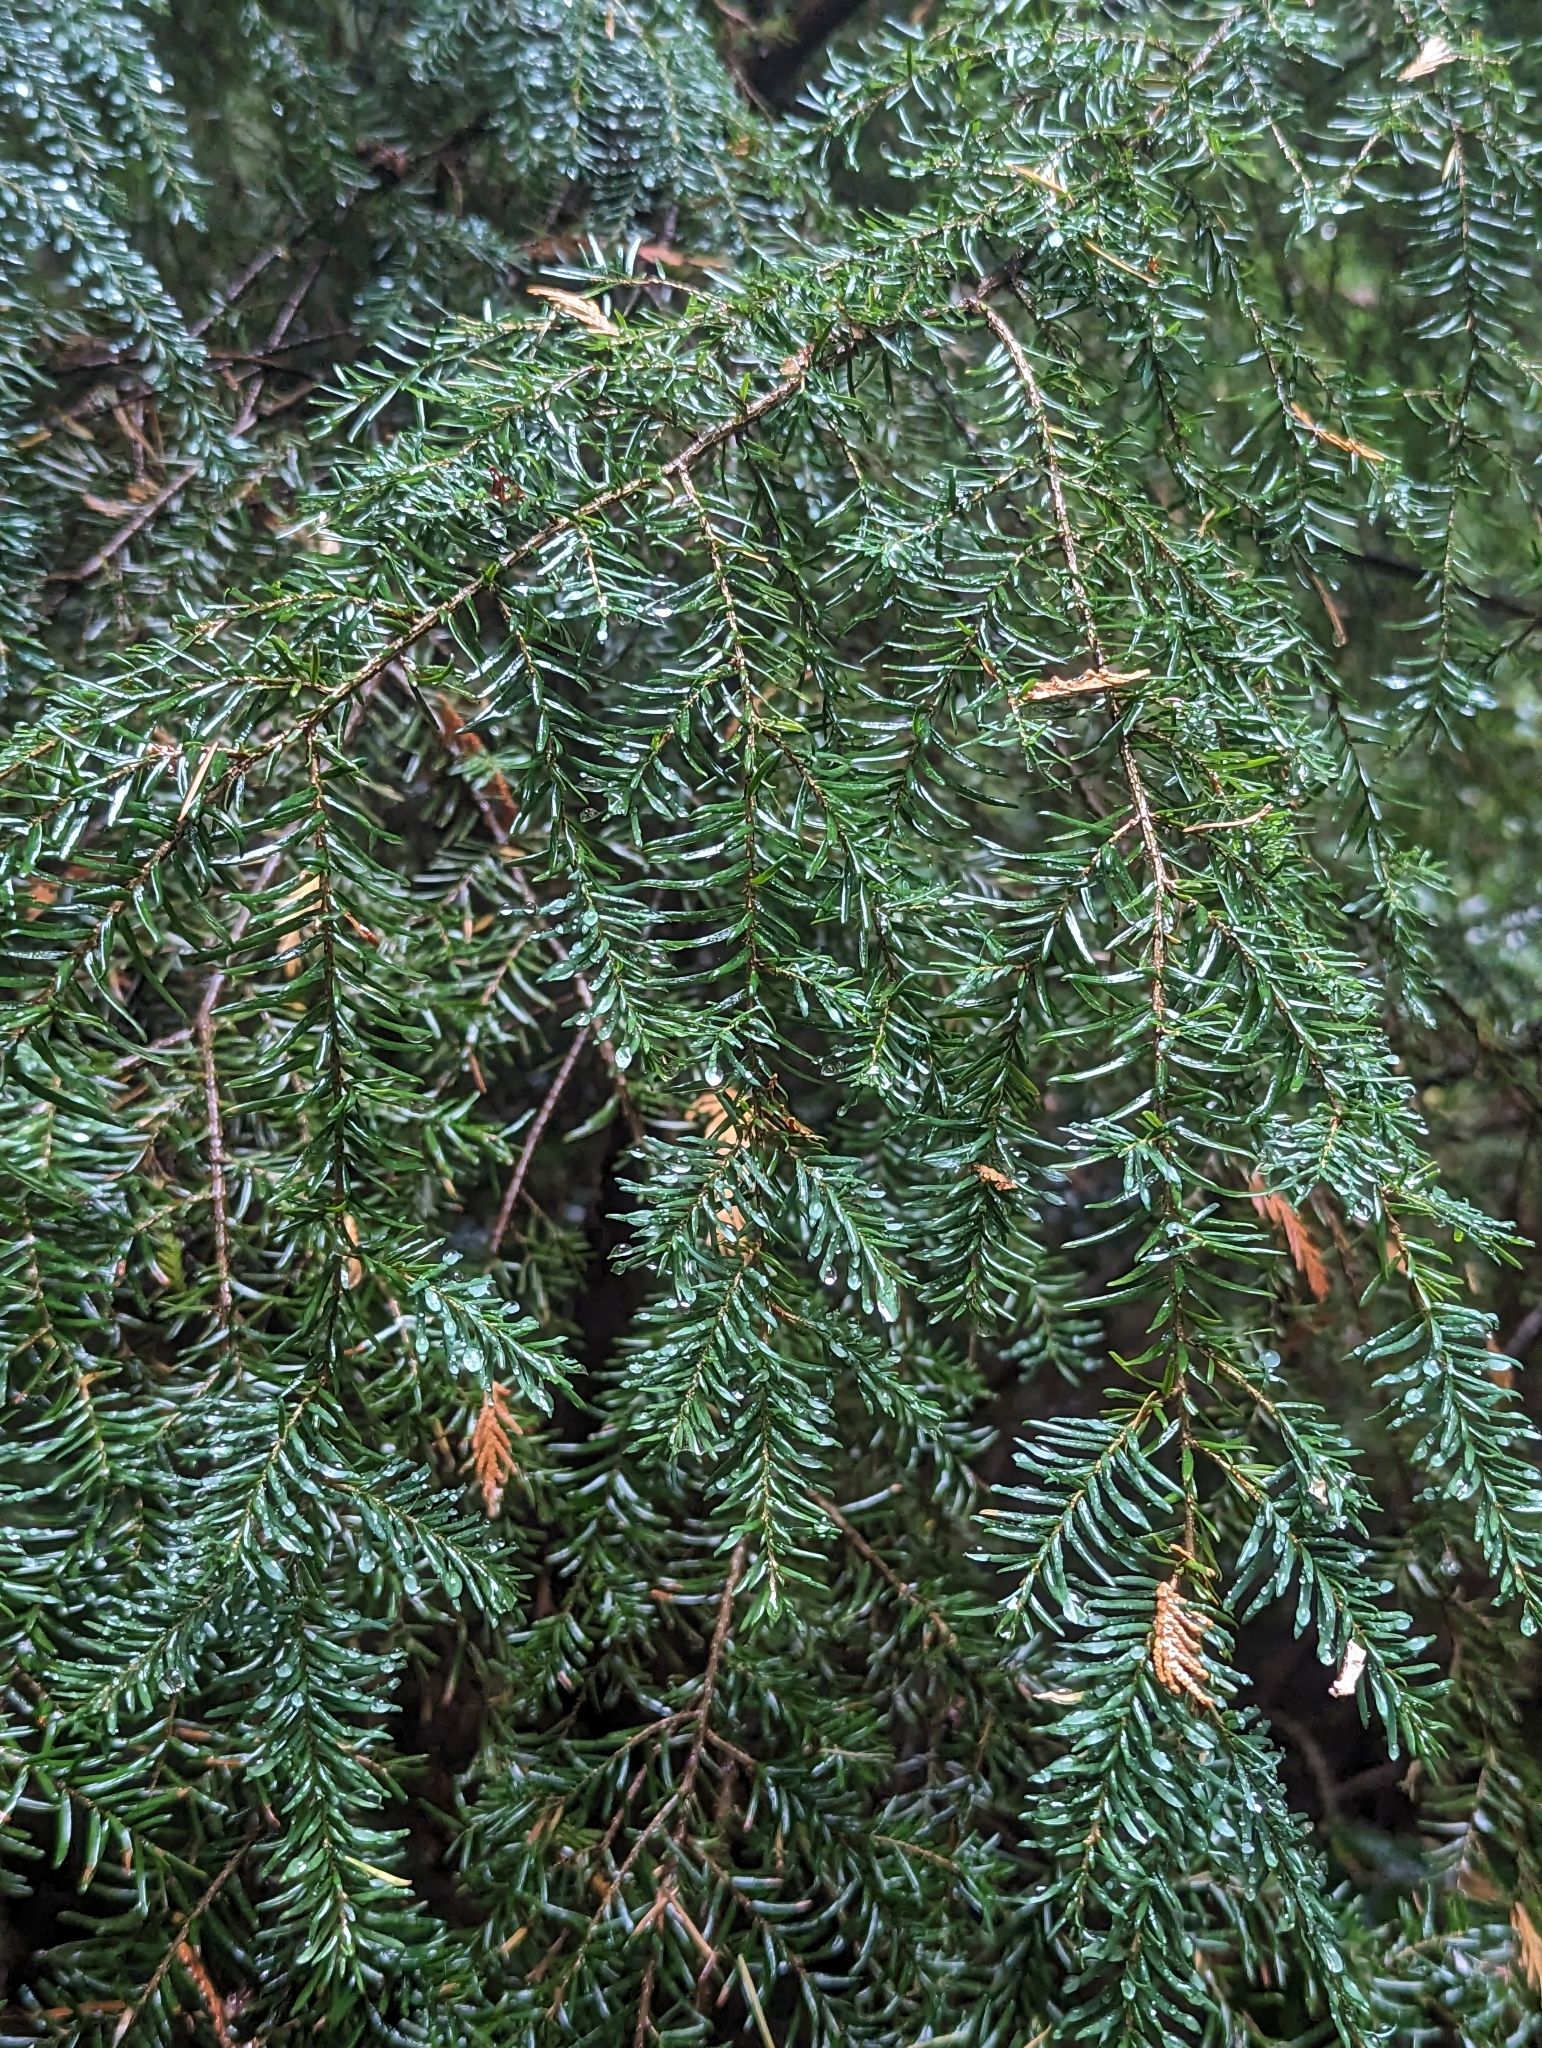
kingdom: Plantae
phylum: Tracheophyta
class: Pinopsida
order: Pinales
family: Pinaceae
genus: Tsuga
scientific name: Tsuga heterophylla
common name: Western hemlock
